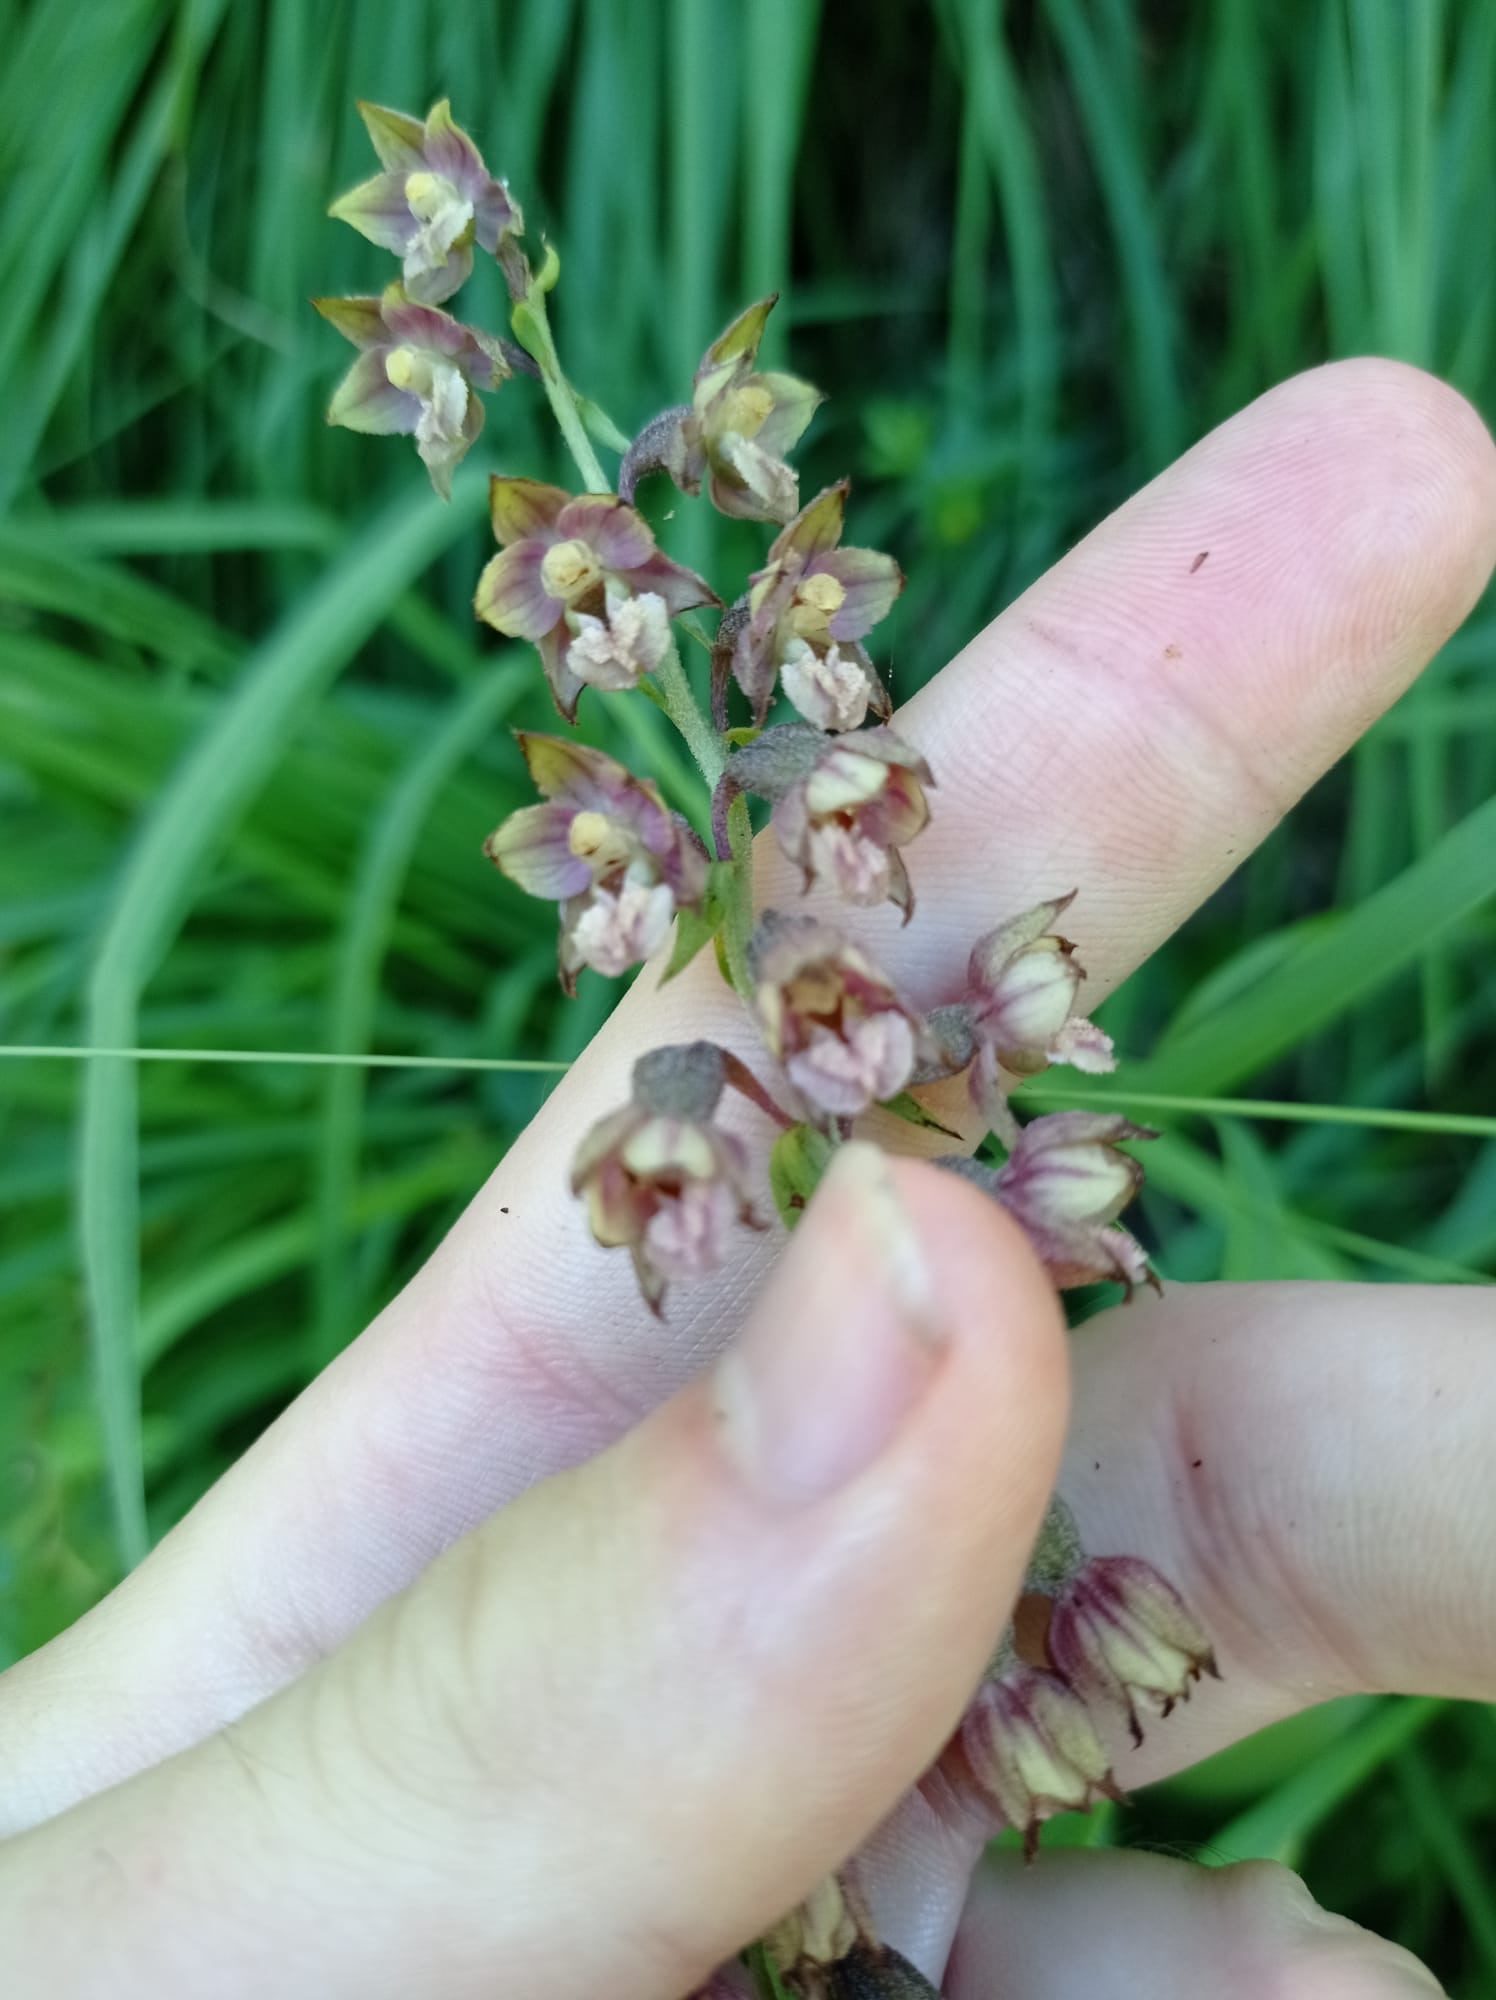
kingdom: Plantae
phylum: Tracheophyta
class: Liliopsida
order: Asparagales
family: Orchidaceae
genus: Epipactis
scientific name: Epipactis helleborine
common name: Broad-leaved helleborine
